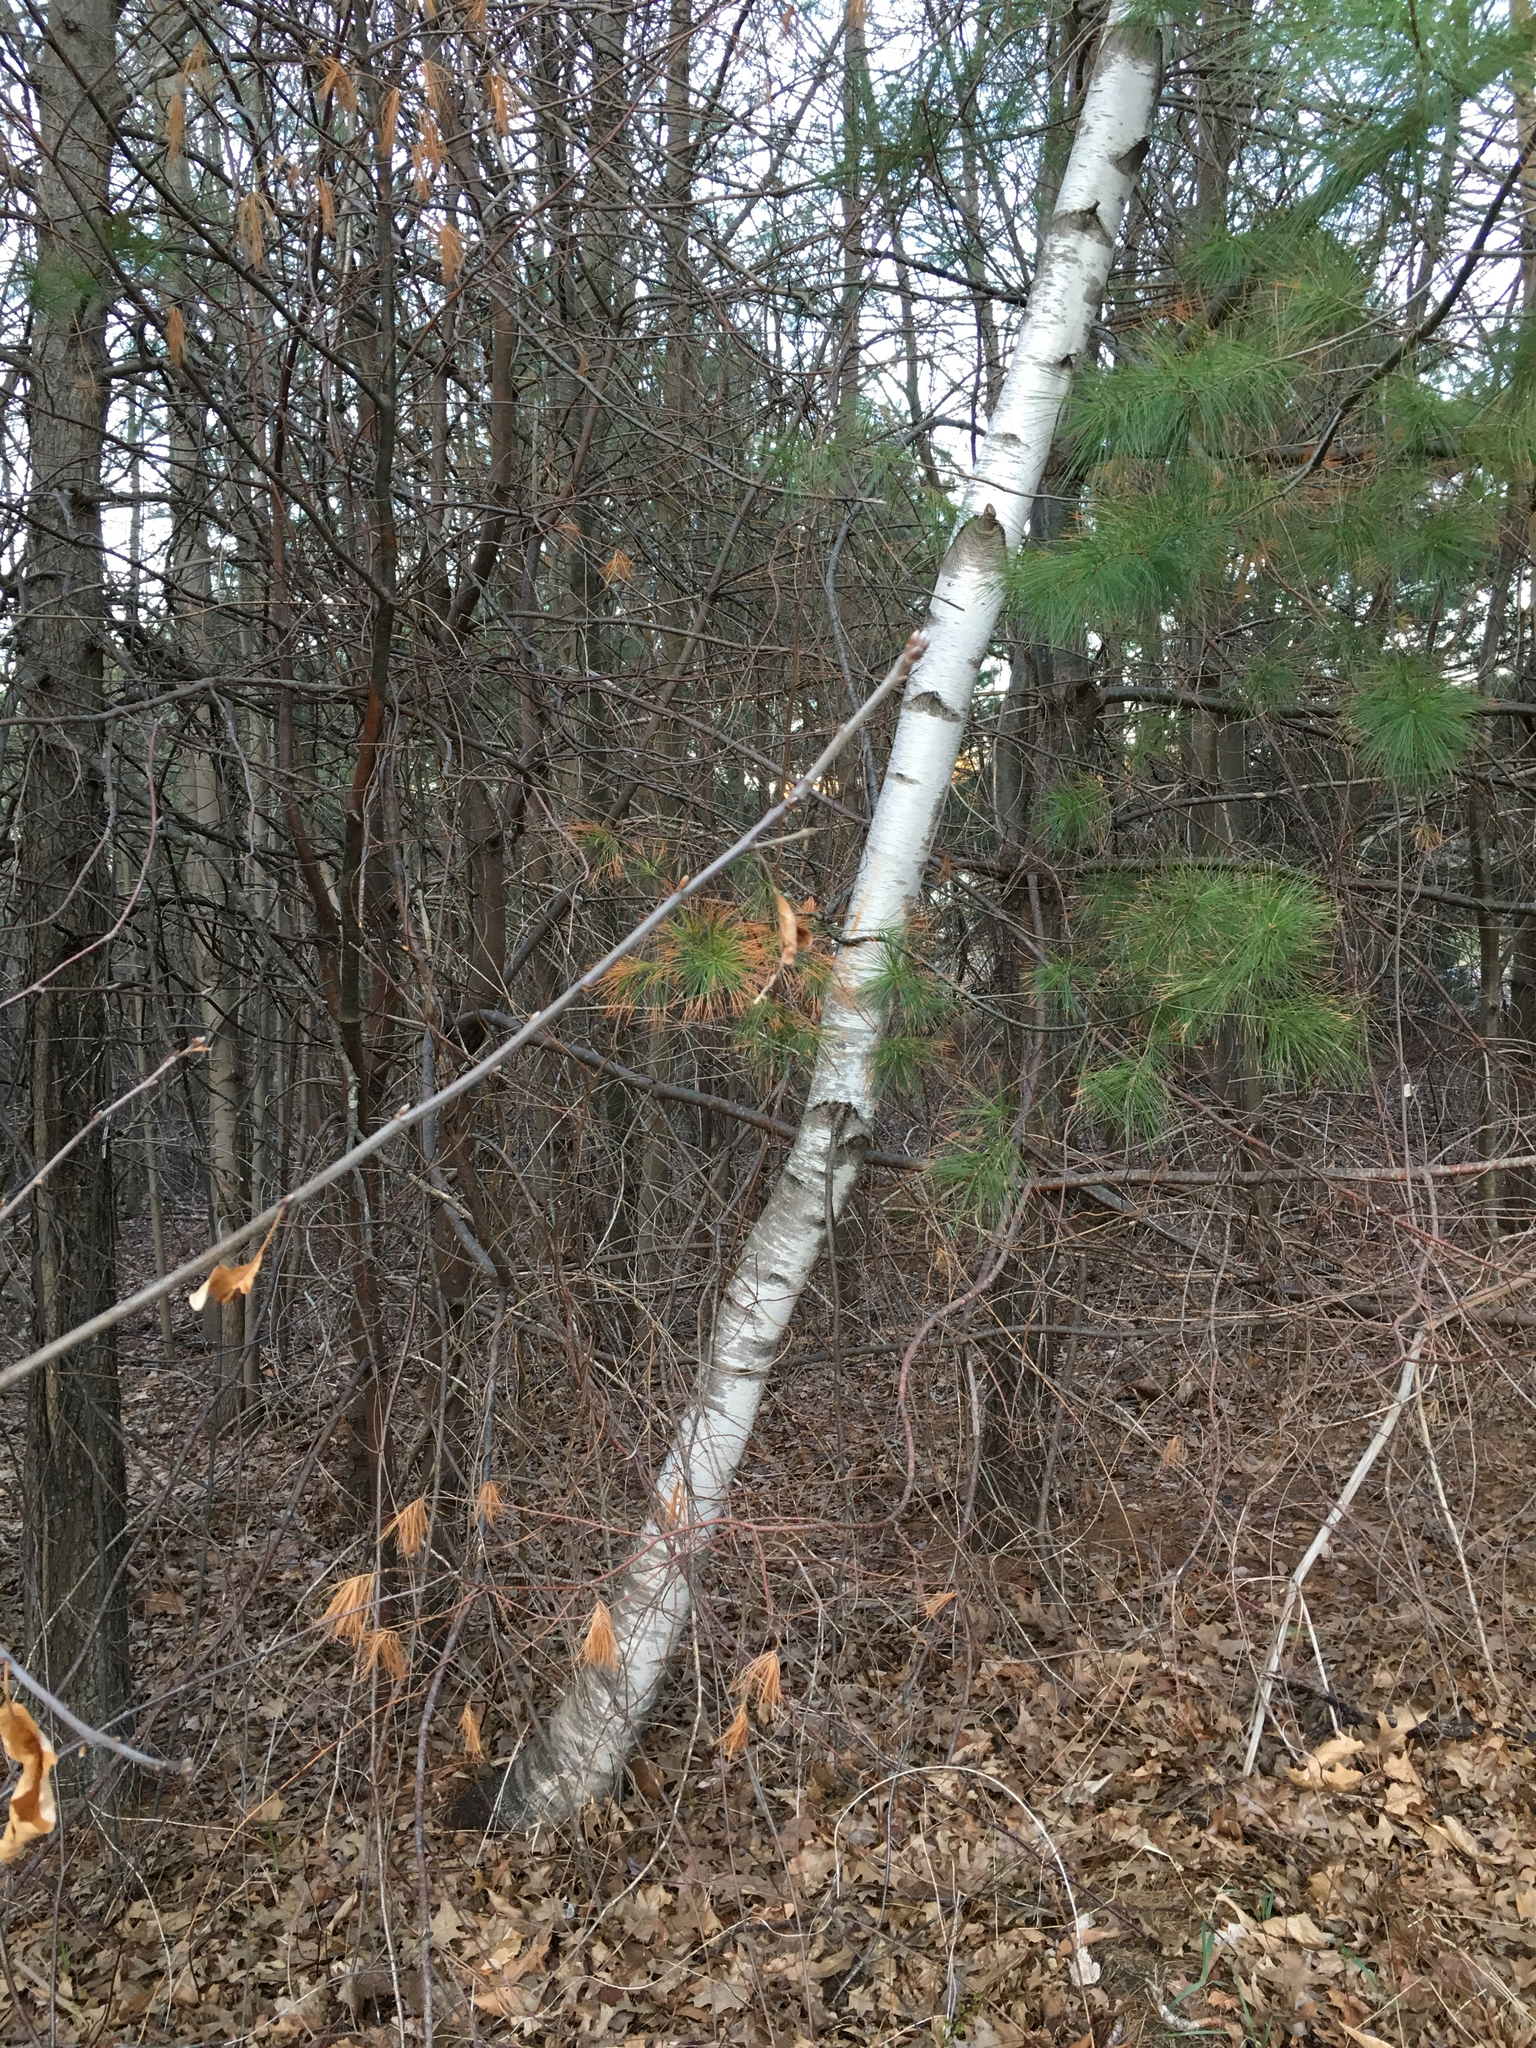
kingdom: Plantae
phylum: Tracheophyta
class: Magnoliopsida
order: Fagales
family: Betulaceae
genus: Betula
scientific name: Betula papyrifera
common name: Paper birch
